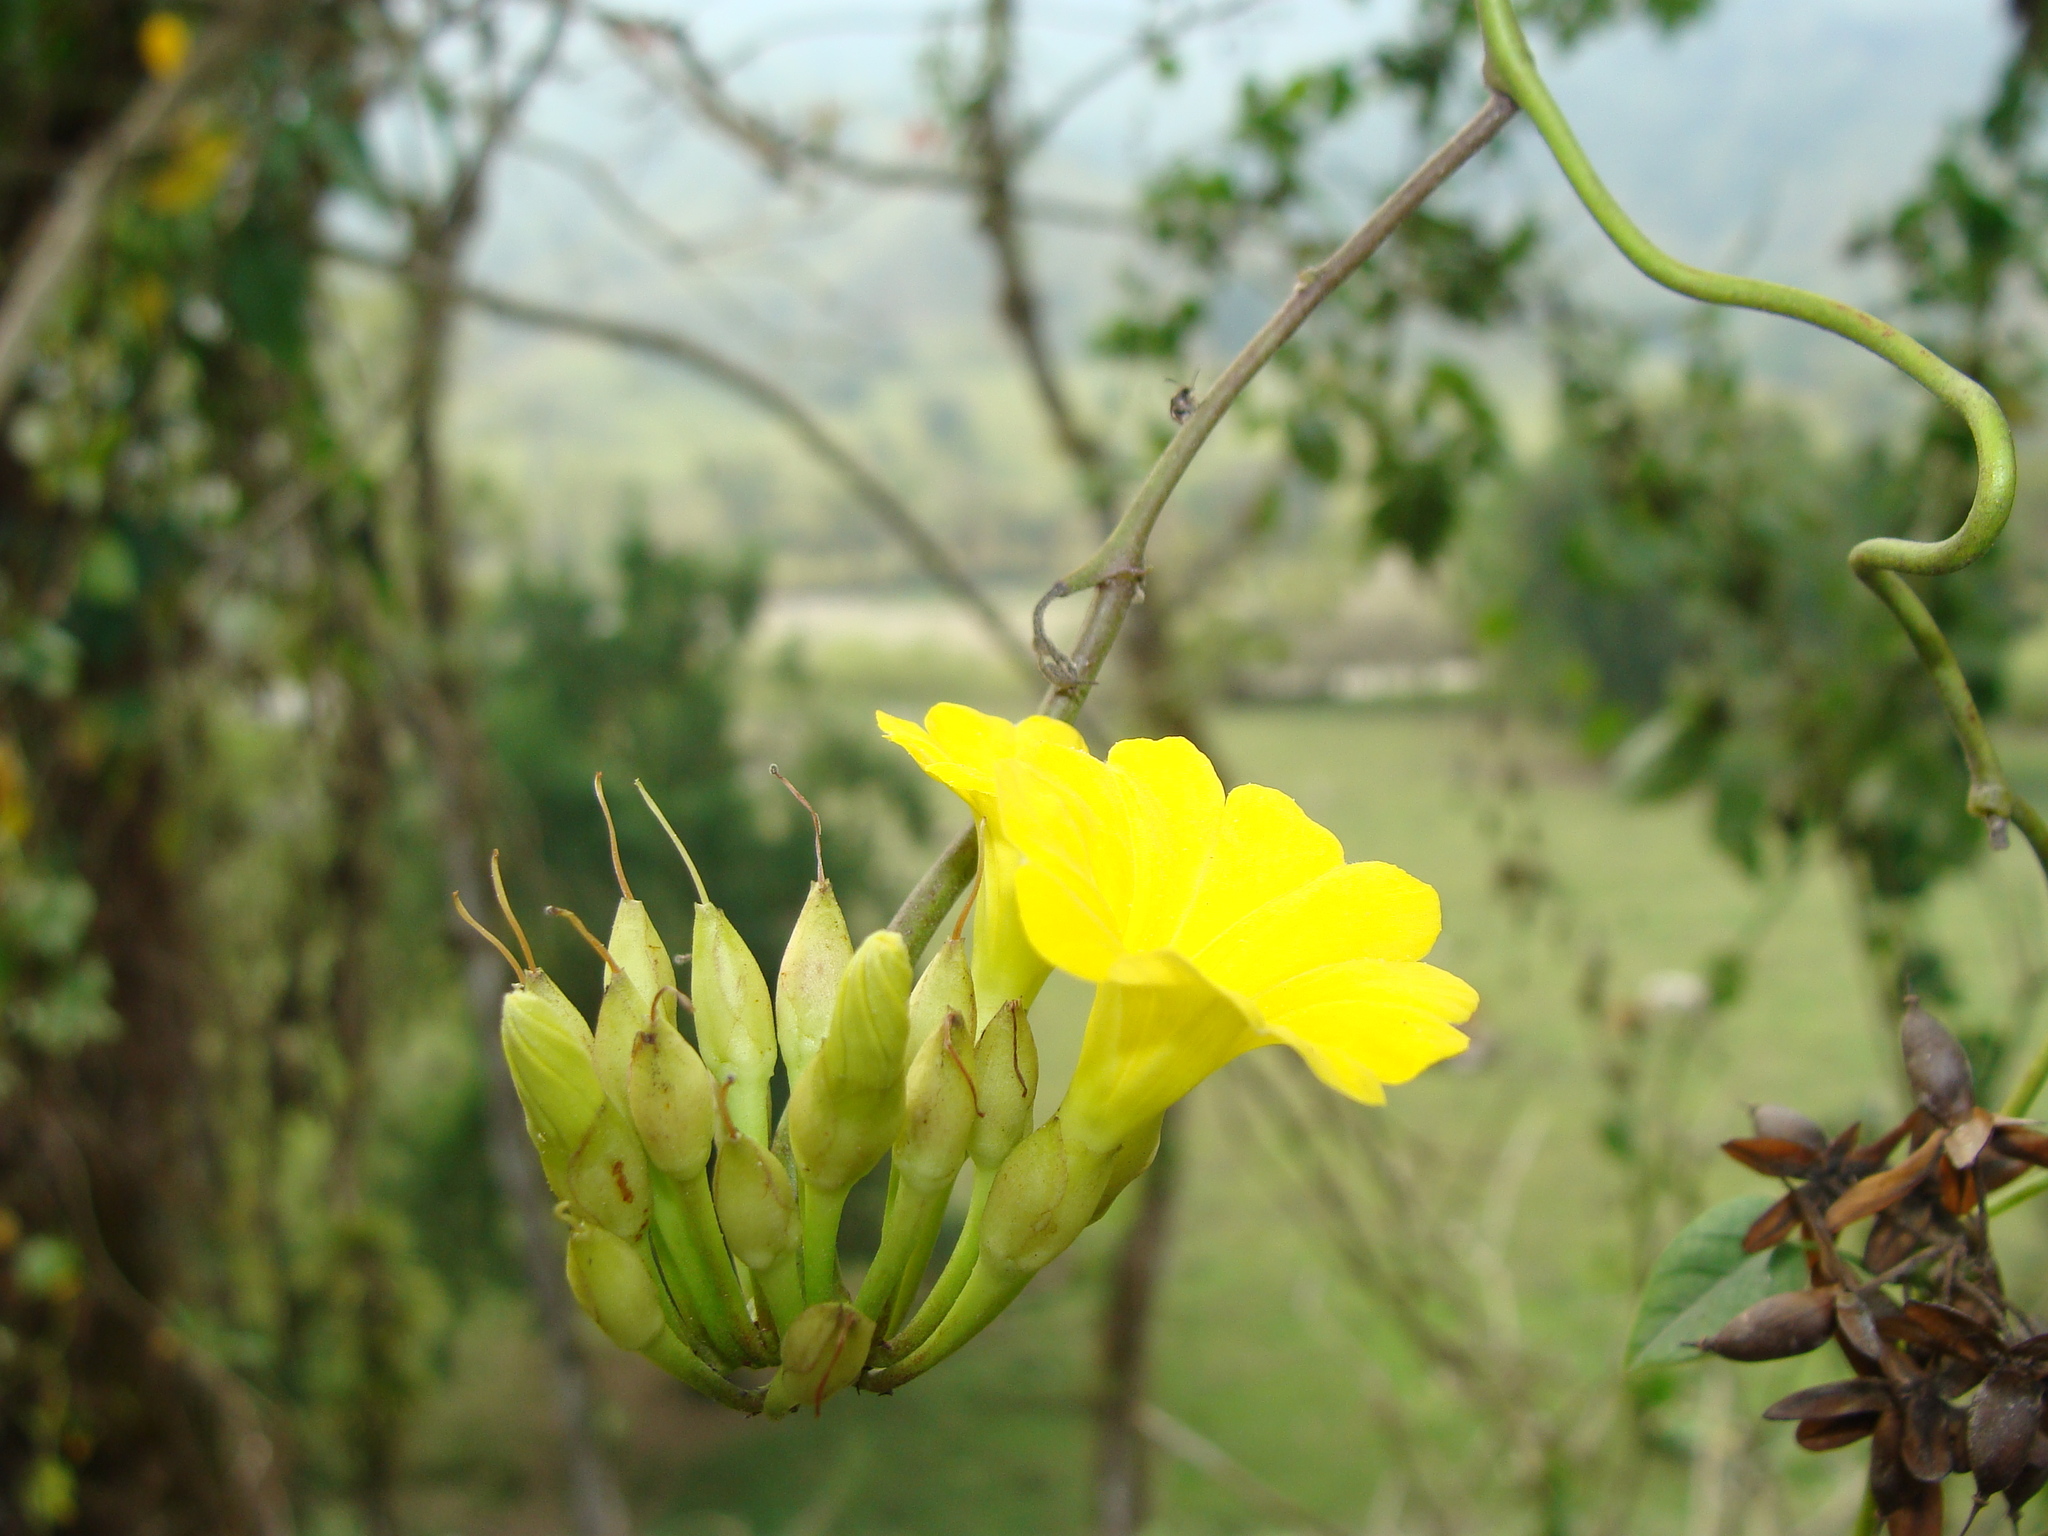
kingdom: Plantae
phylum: Tracheophyta
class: Magnoliopsida
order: Solanales
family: Convolvulaceae
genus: Camonea
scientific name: Camonea umbellata
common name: Hogvine
